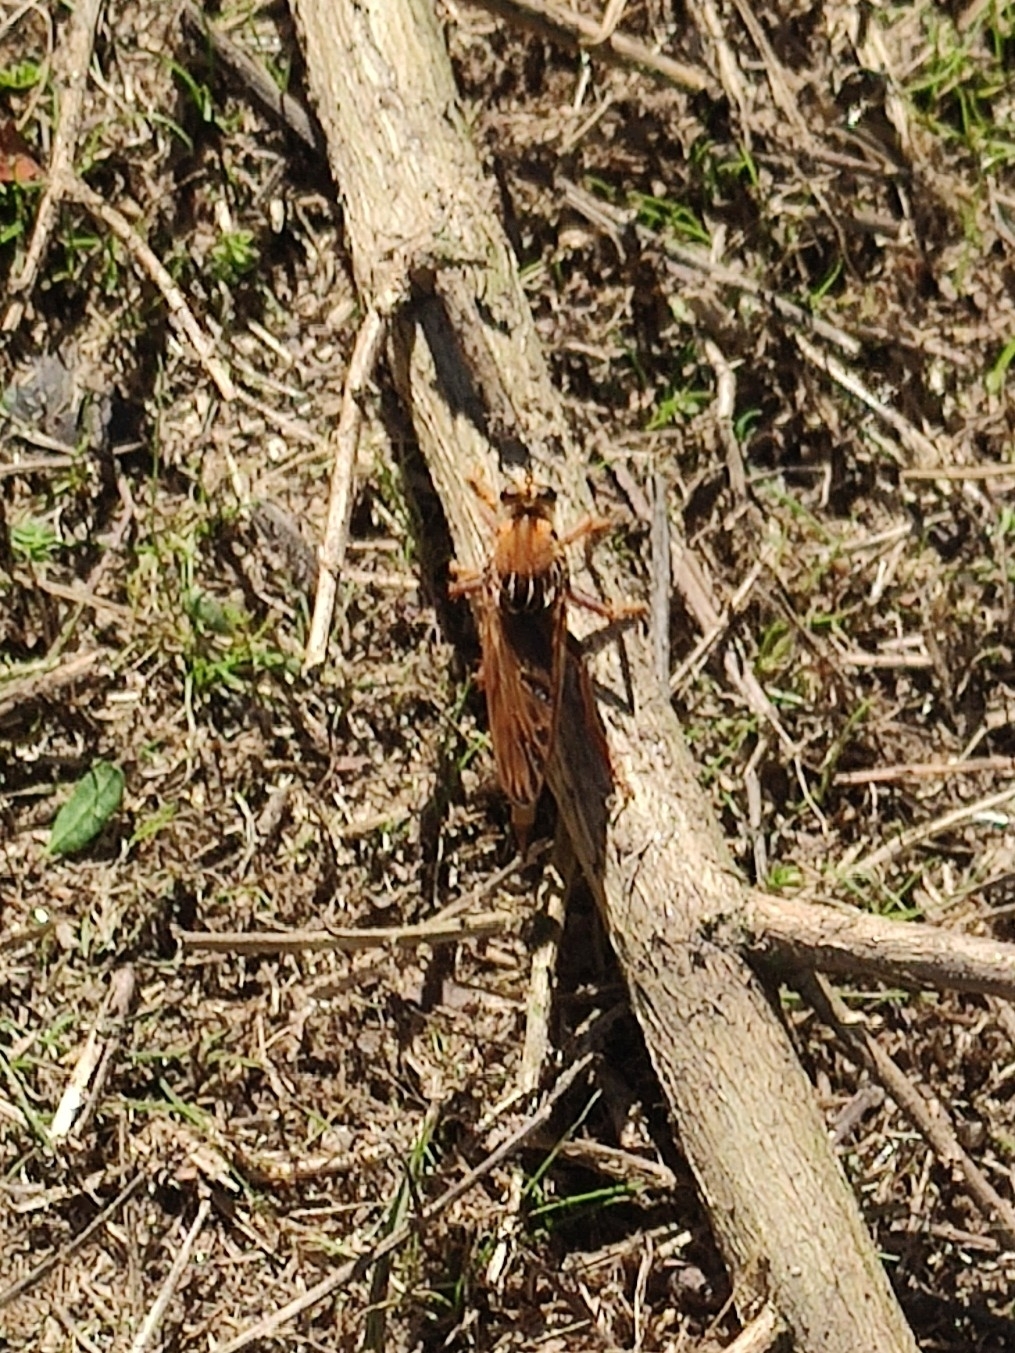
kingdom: Animalia
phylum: Arthropoda
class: Insecta
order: Diptera
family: Asilidae
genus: Asilus
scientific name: Asilus crabroniformis
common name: Hornet robberfly
